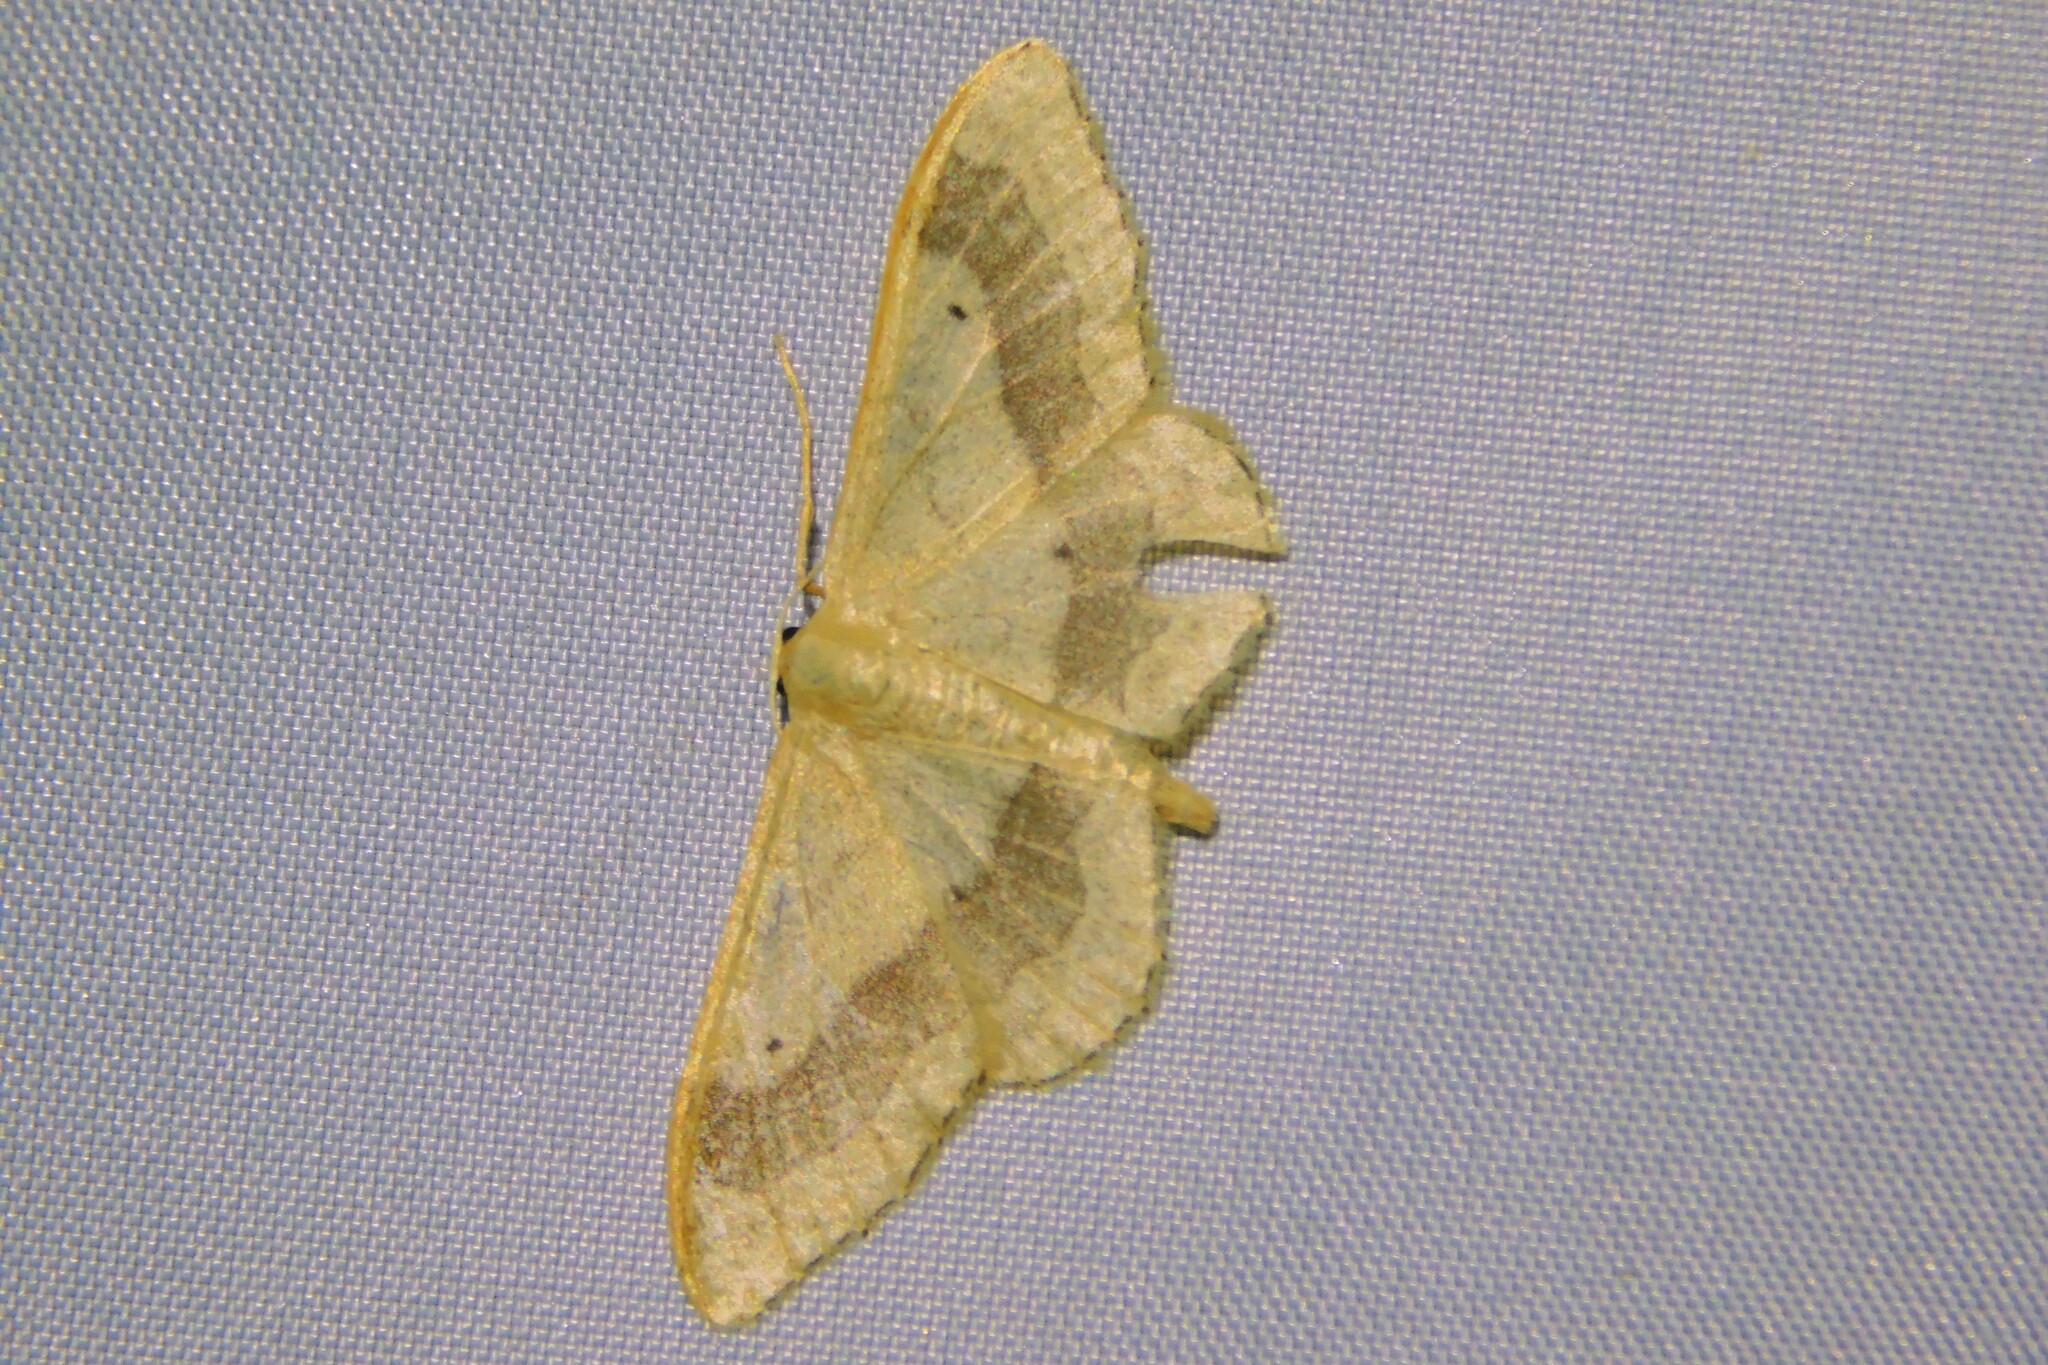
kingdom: Animalia
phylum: Arthropoda
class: Insecta
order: Lepidoptera
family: Geometridae
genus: Idaea
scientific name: Idaea aversata
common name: Riband wave
